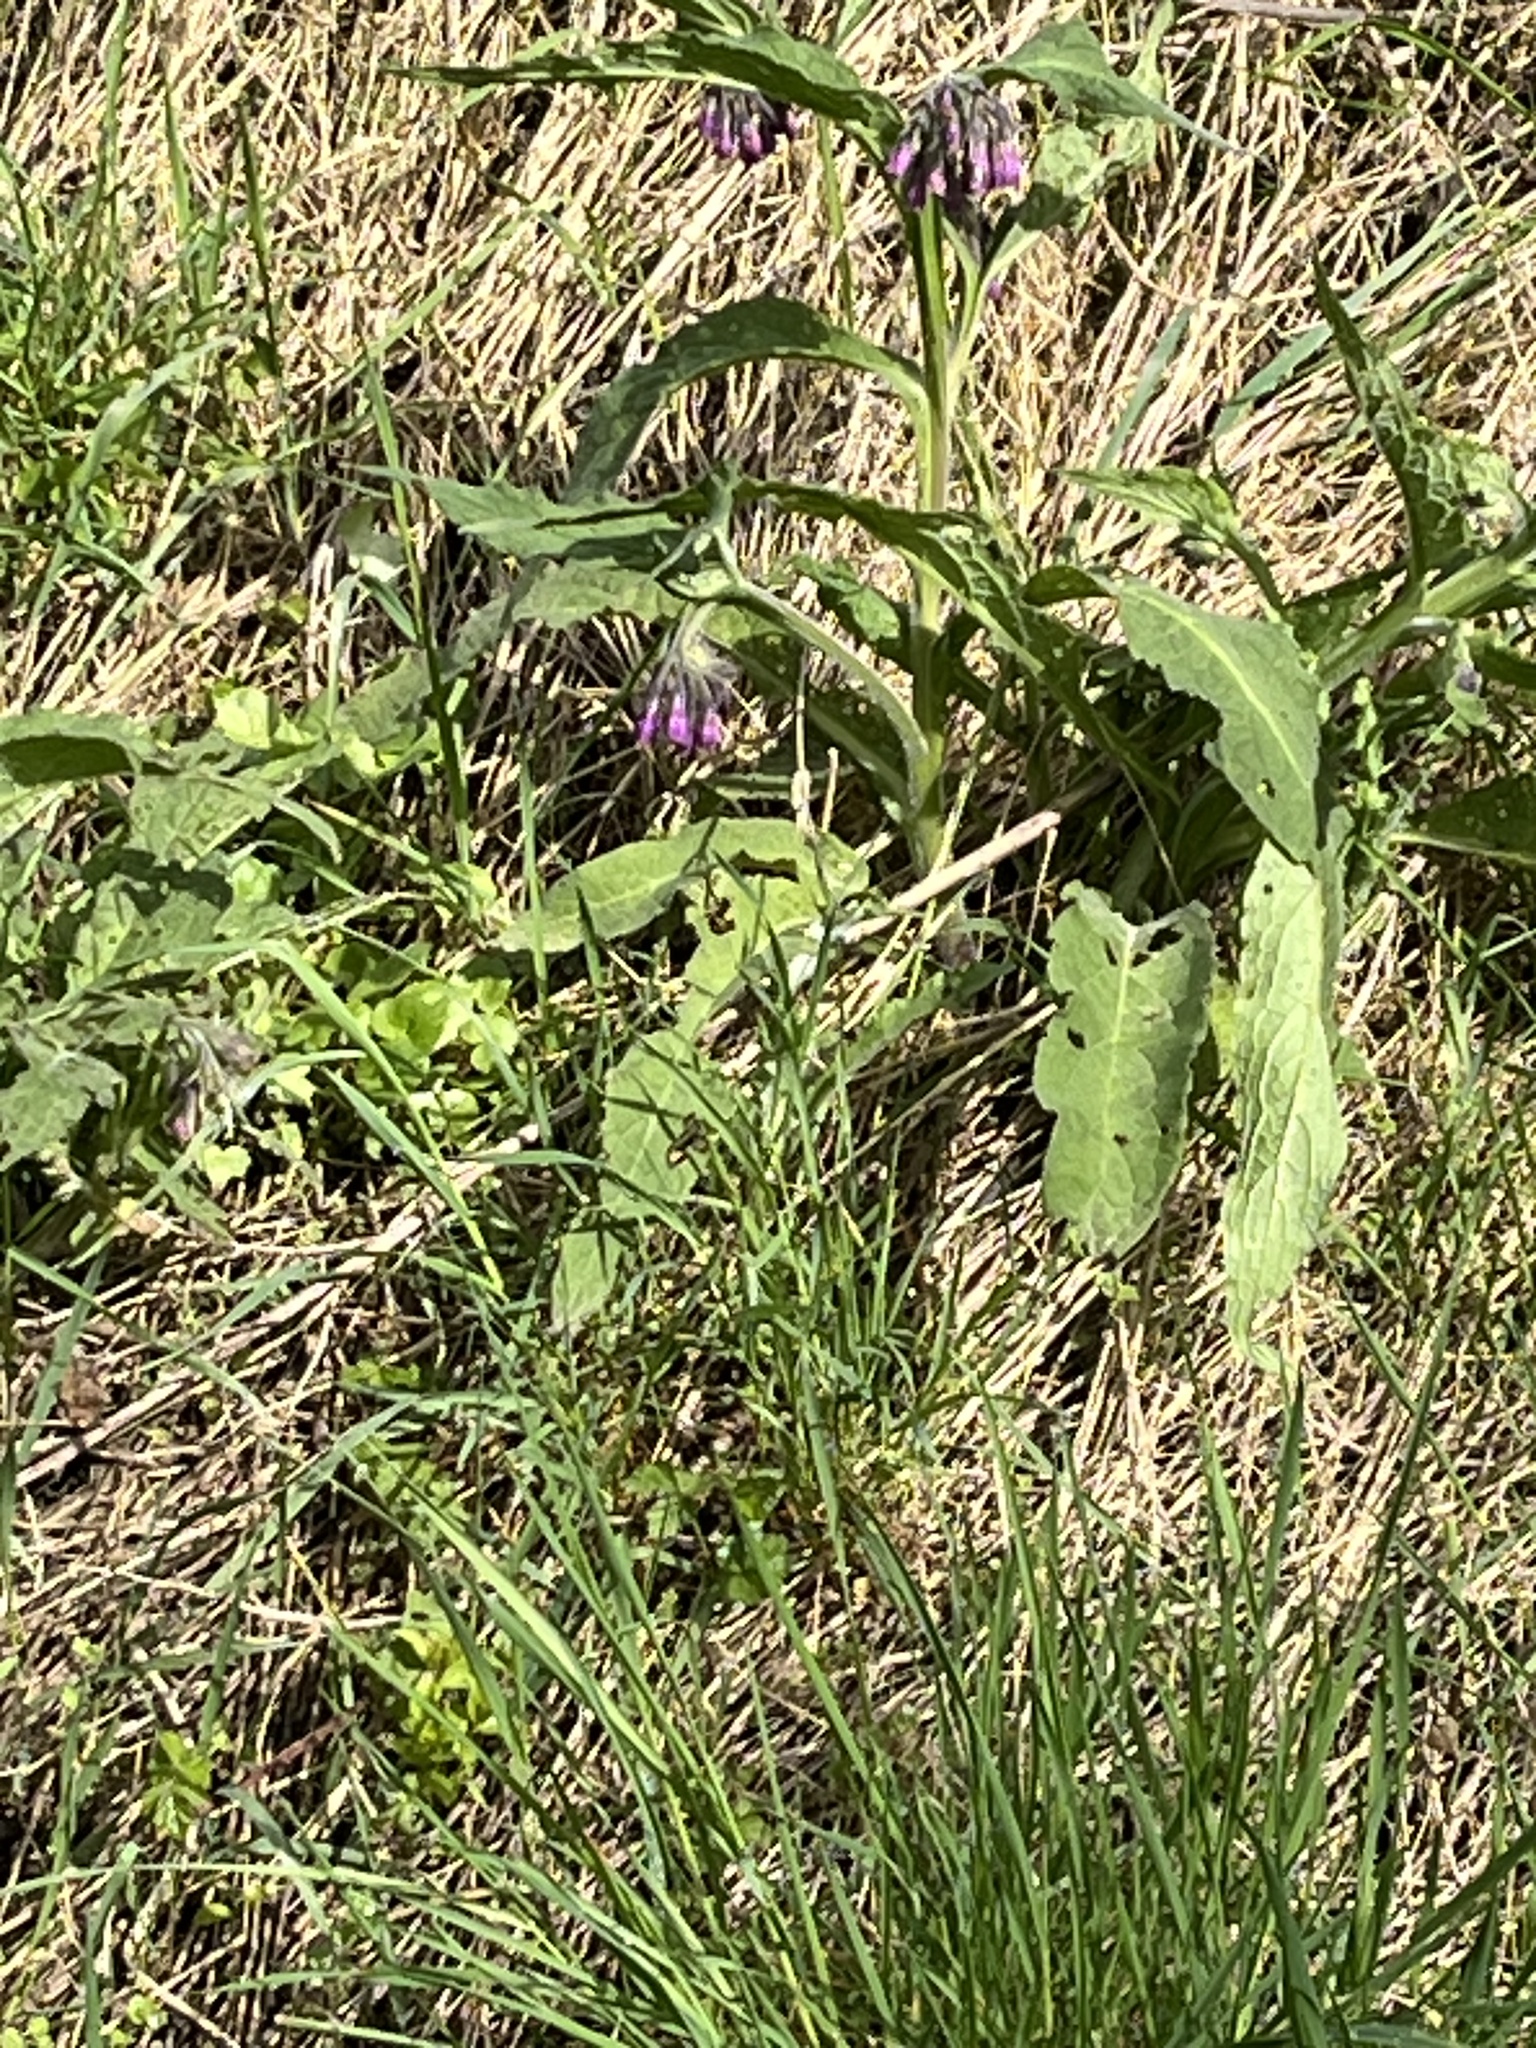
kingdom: Plantae
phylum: Tracheophyta
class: Magnoliopsida
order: Boraginales
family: Boraginaceae
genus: Symphytum
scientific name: Symphytum officinale
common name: Common comfrey
